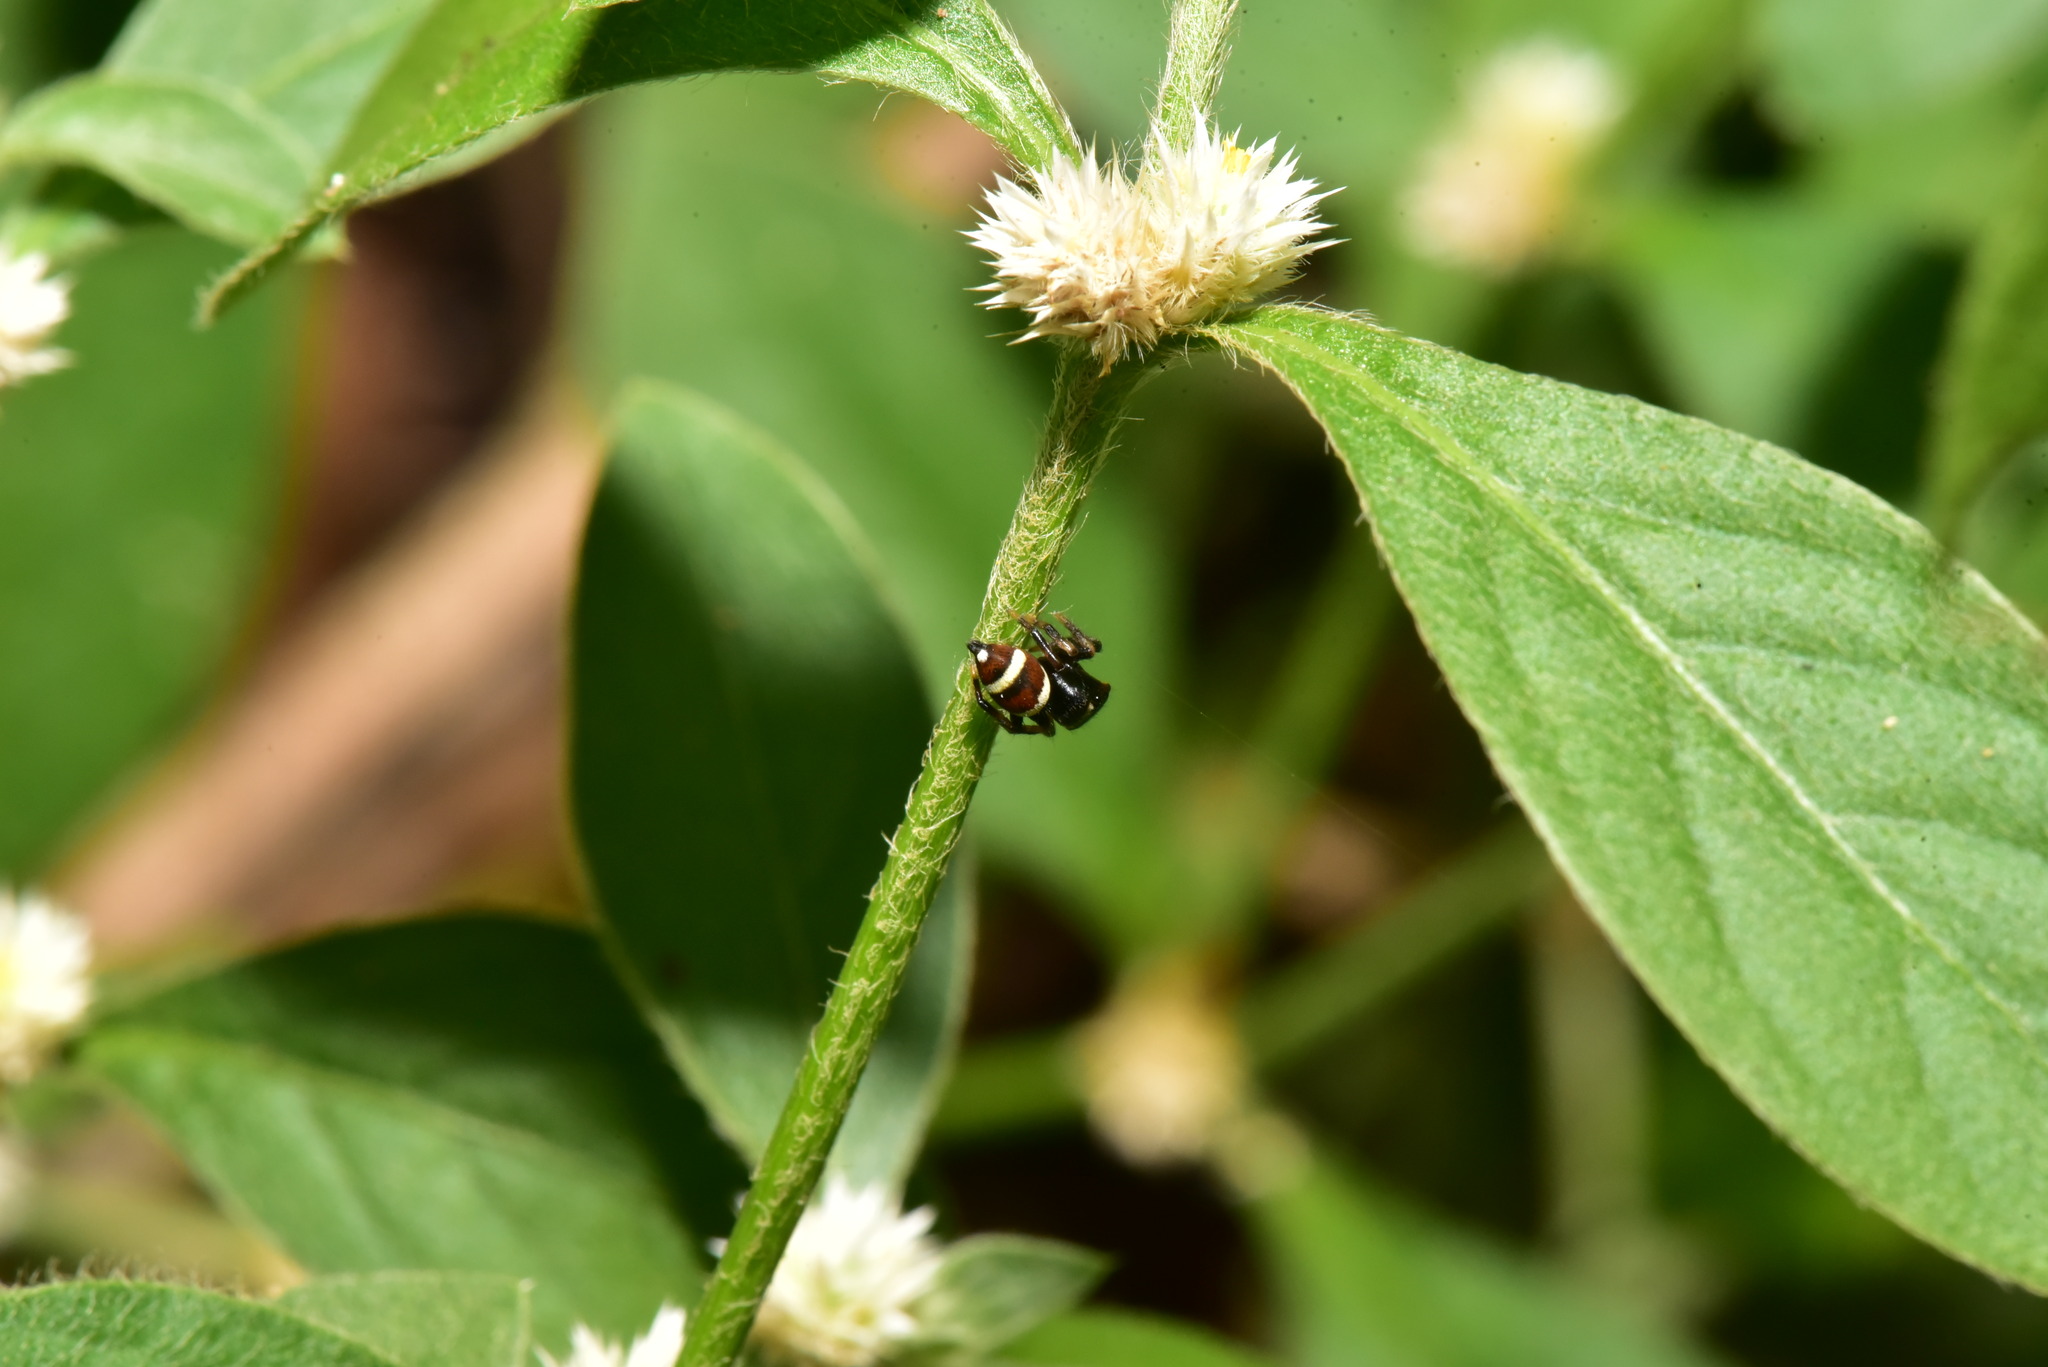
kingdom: Animalia
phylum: Arthropoda
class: Arachnida
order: Araneae
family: Salticidae
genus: Ptocasius
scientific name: Ptocasius strupifer
